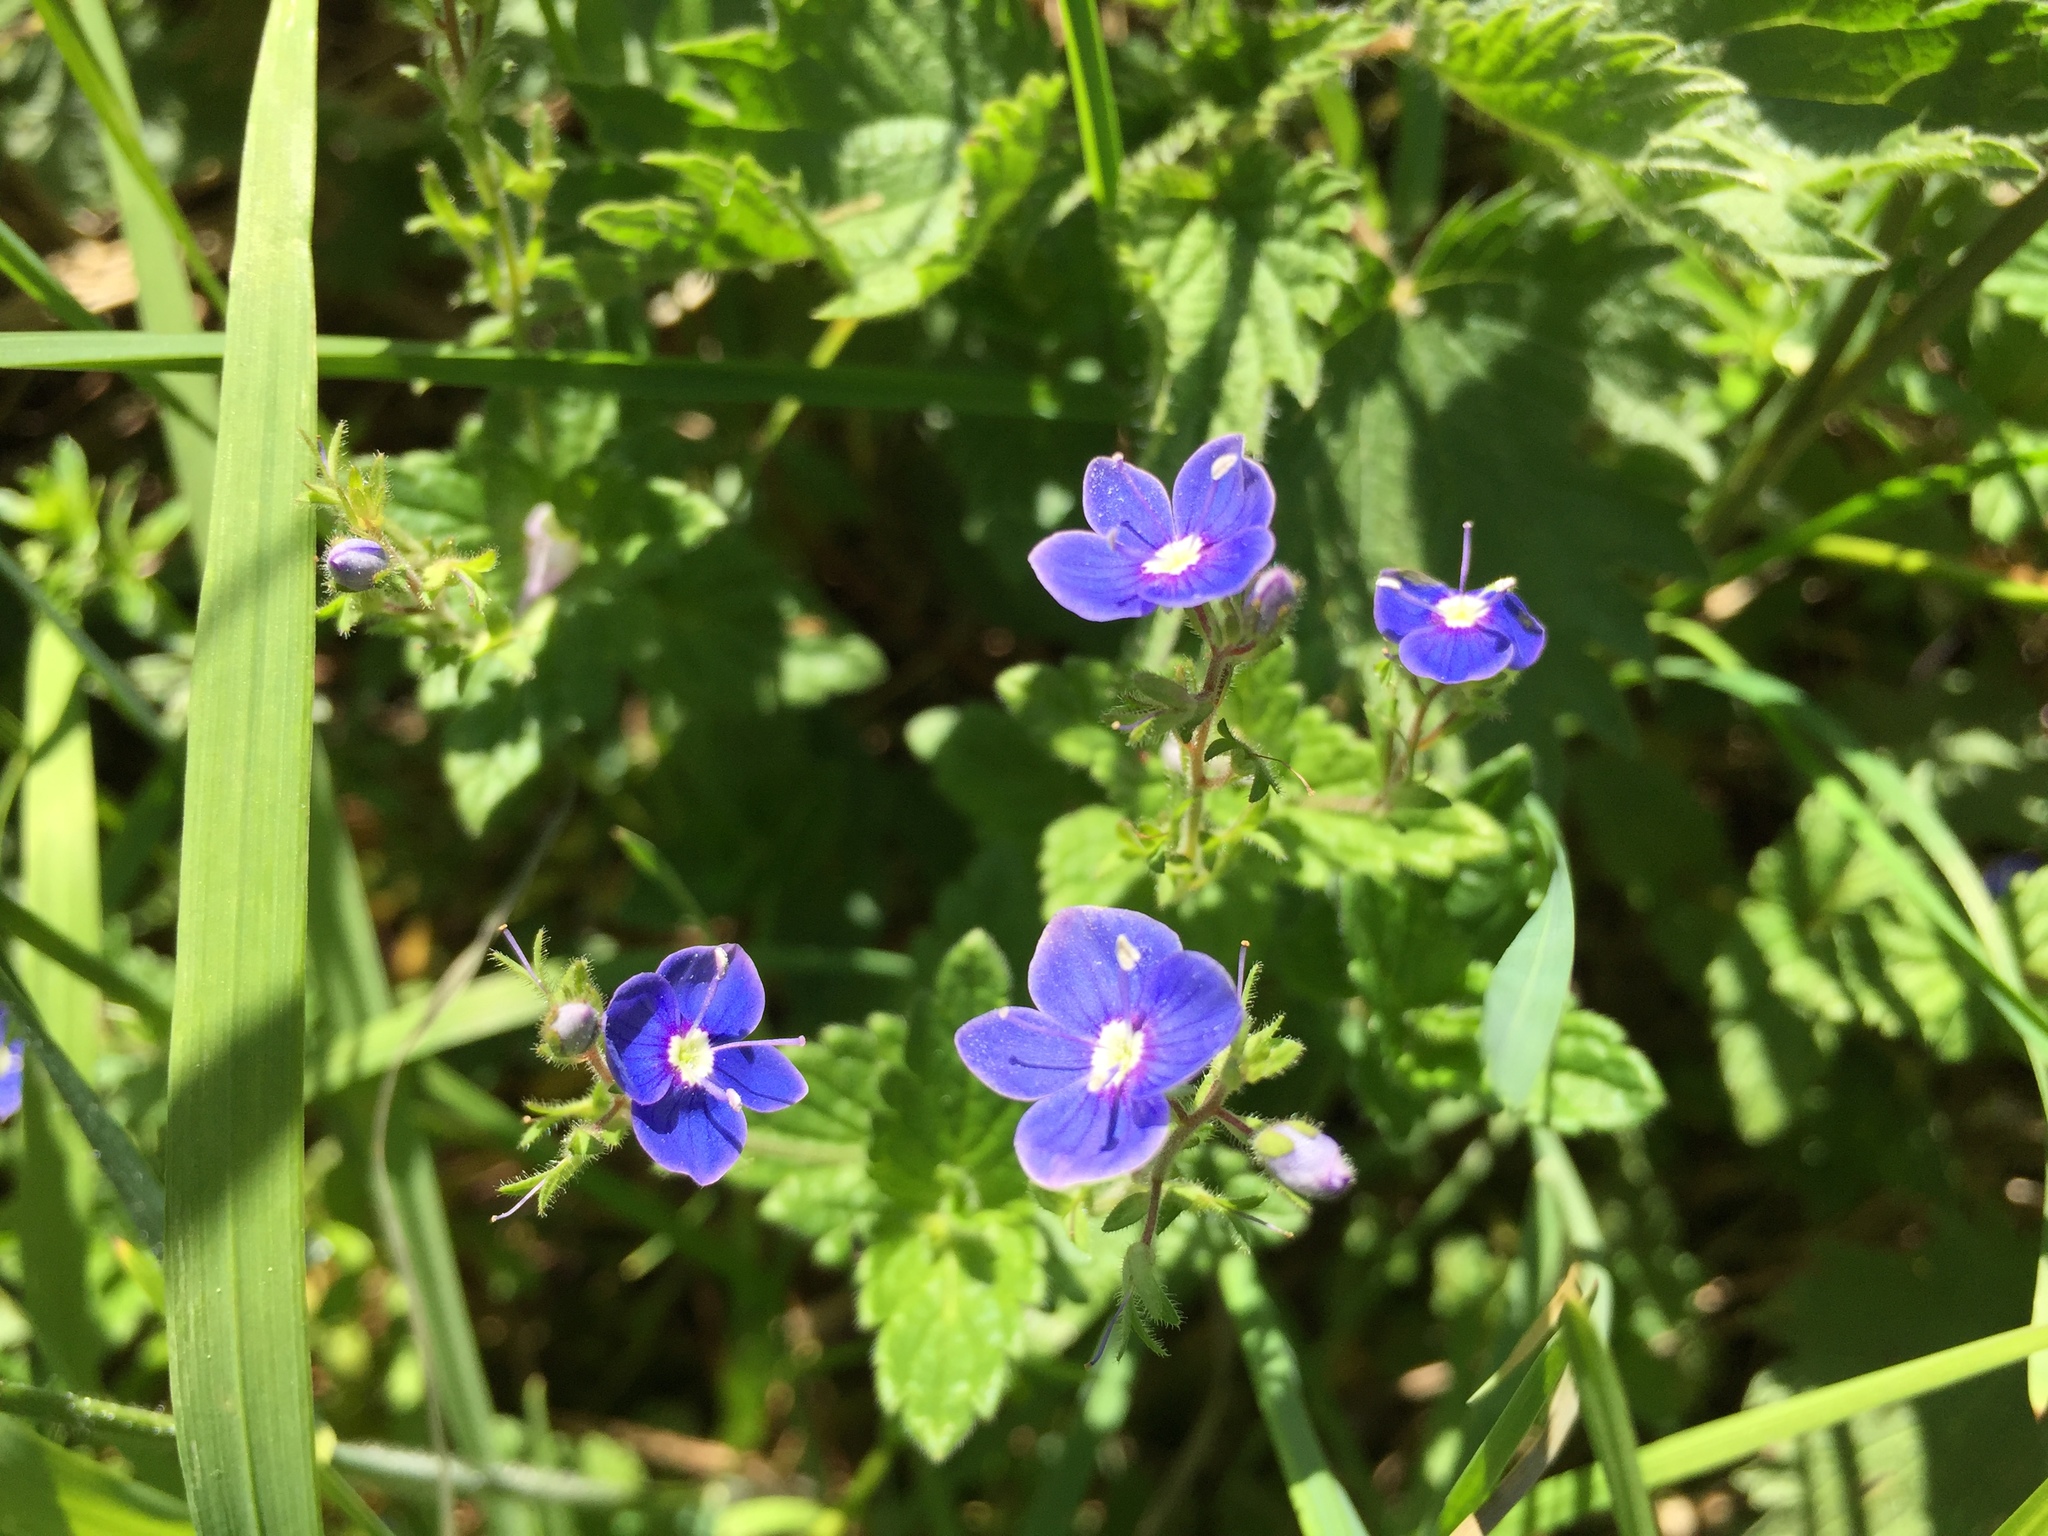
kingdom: Plantae
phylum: Tracheophyta
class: Magnoliopsida
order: Lamiales
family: Plantaginaceae
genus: Veronica
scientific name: Veronica chamaedrys
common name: Germander speedwell
